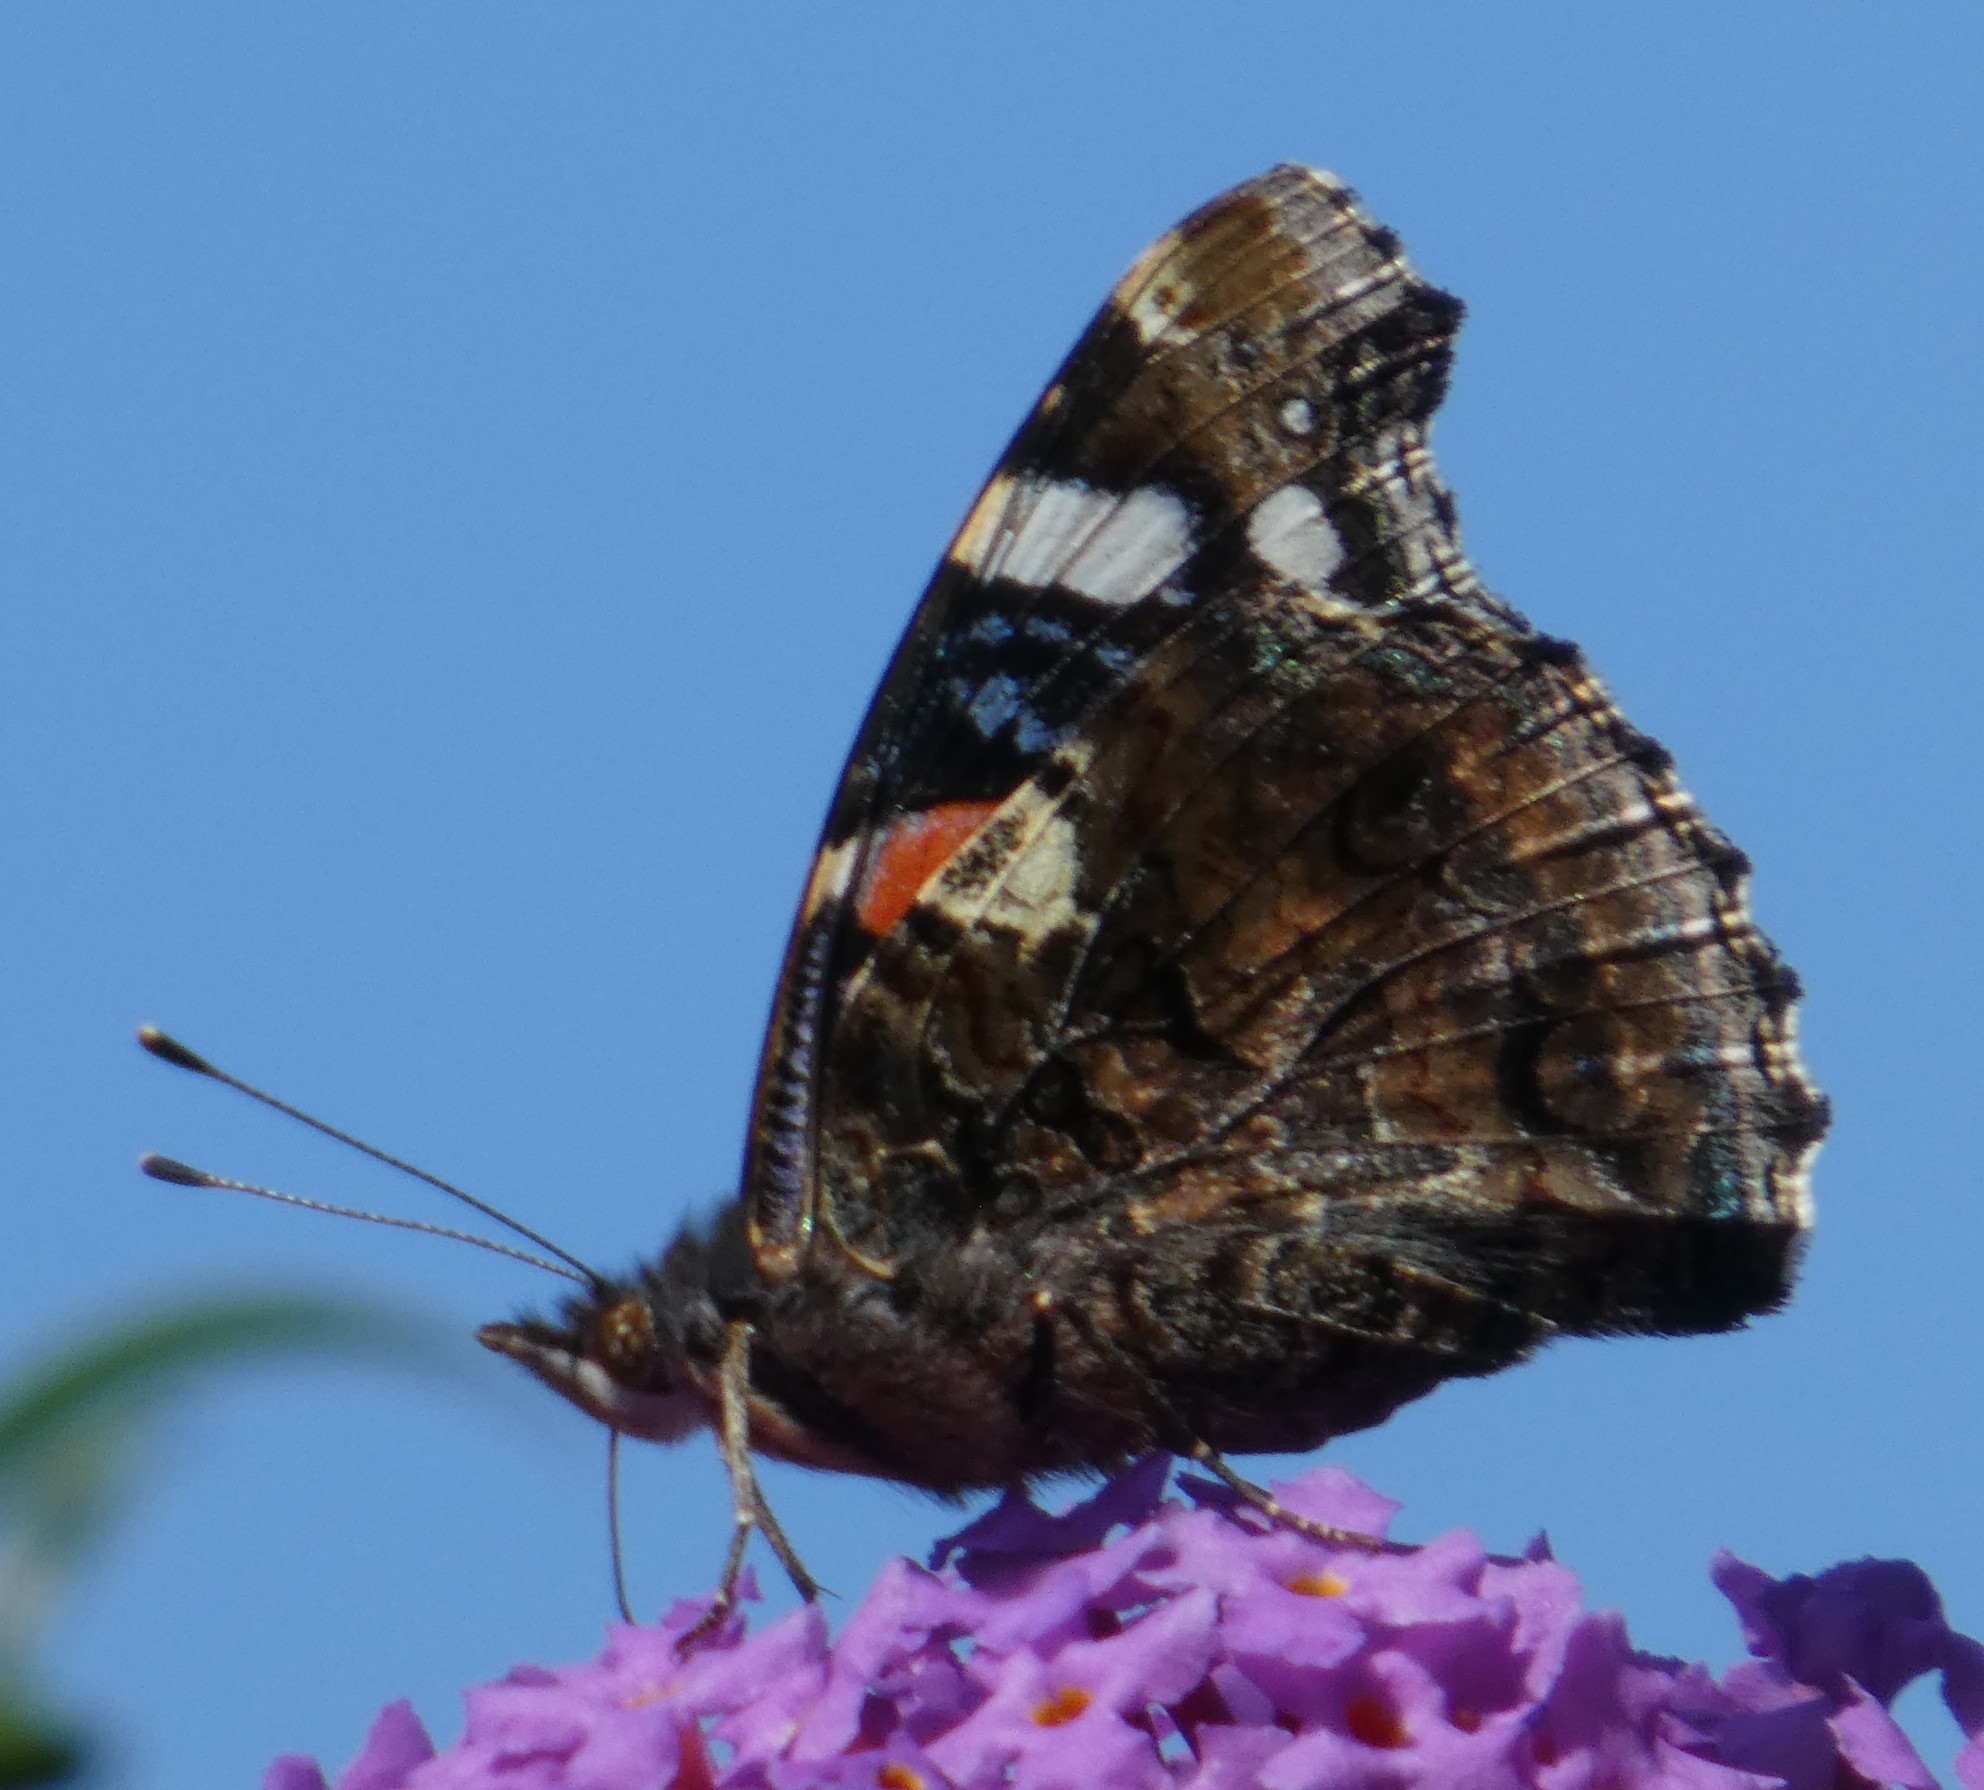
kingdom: Animalia
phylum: Arthropoda
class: Insecta
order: Lepidoptera
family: Nymphalidae
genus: Vanessa
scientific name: Vanessa atalanta
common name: Red admiral
